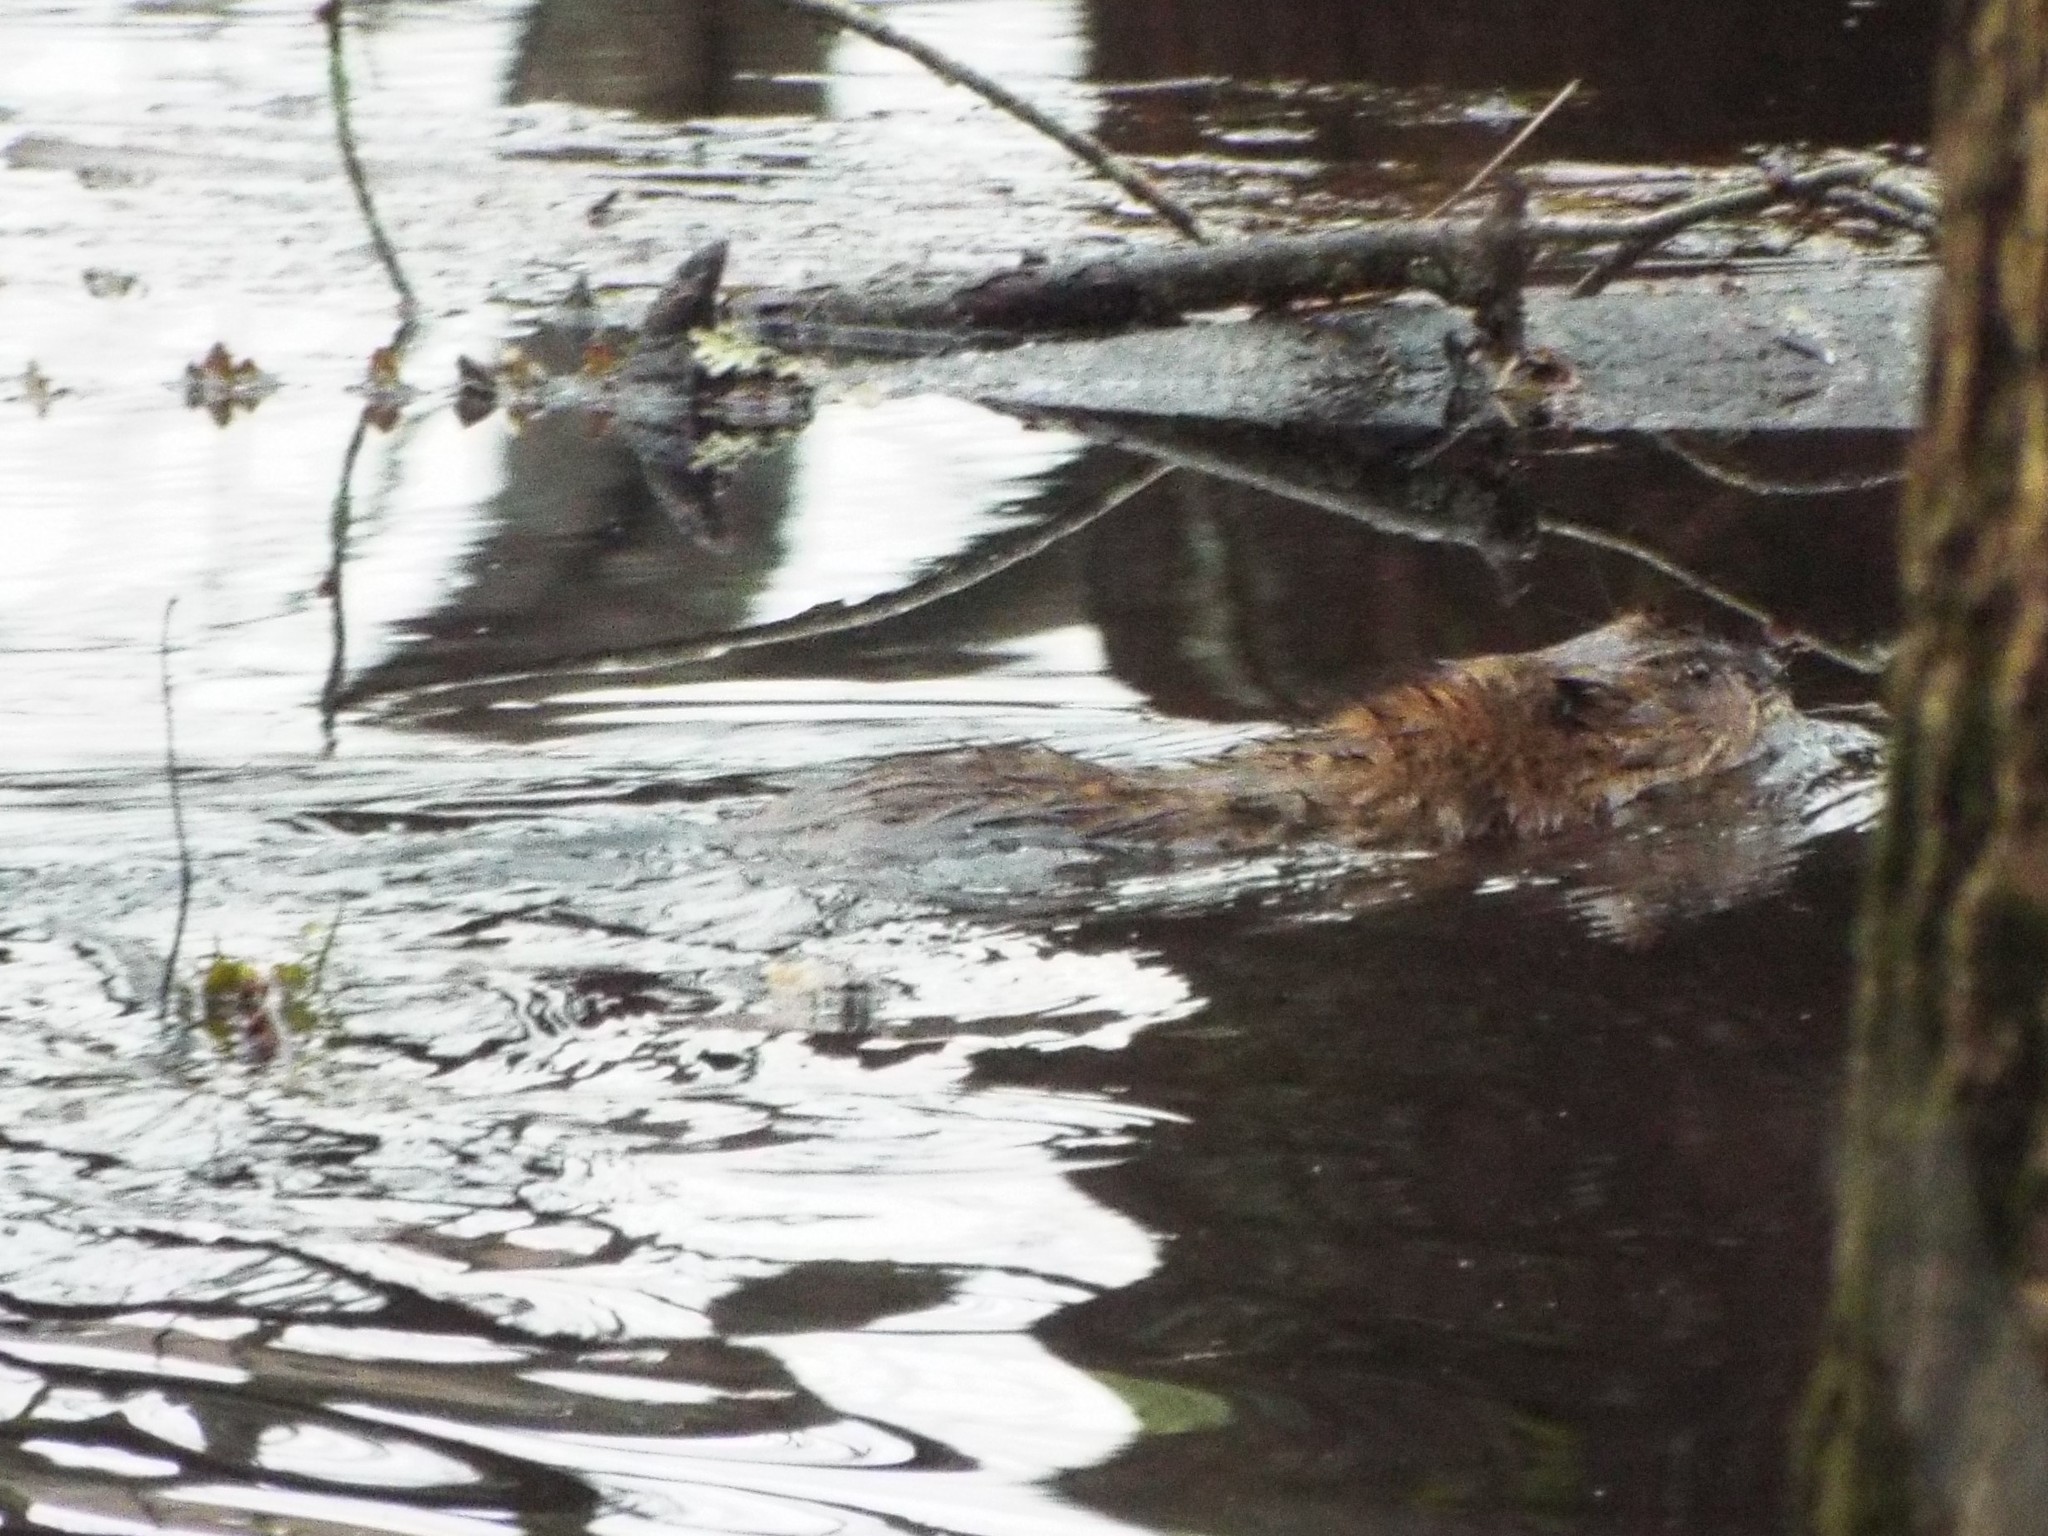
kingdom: Animalia
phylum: Chordata
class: Mammalia
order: Rodentia
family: Cricetidae
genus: Ondatra
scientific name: Ondatra zibethicus
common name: Muskrat
